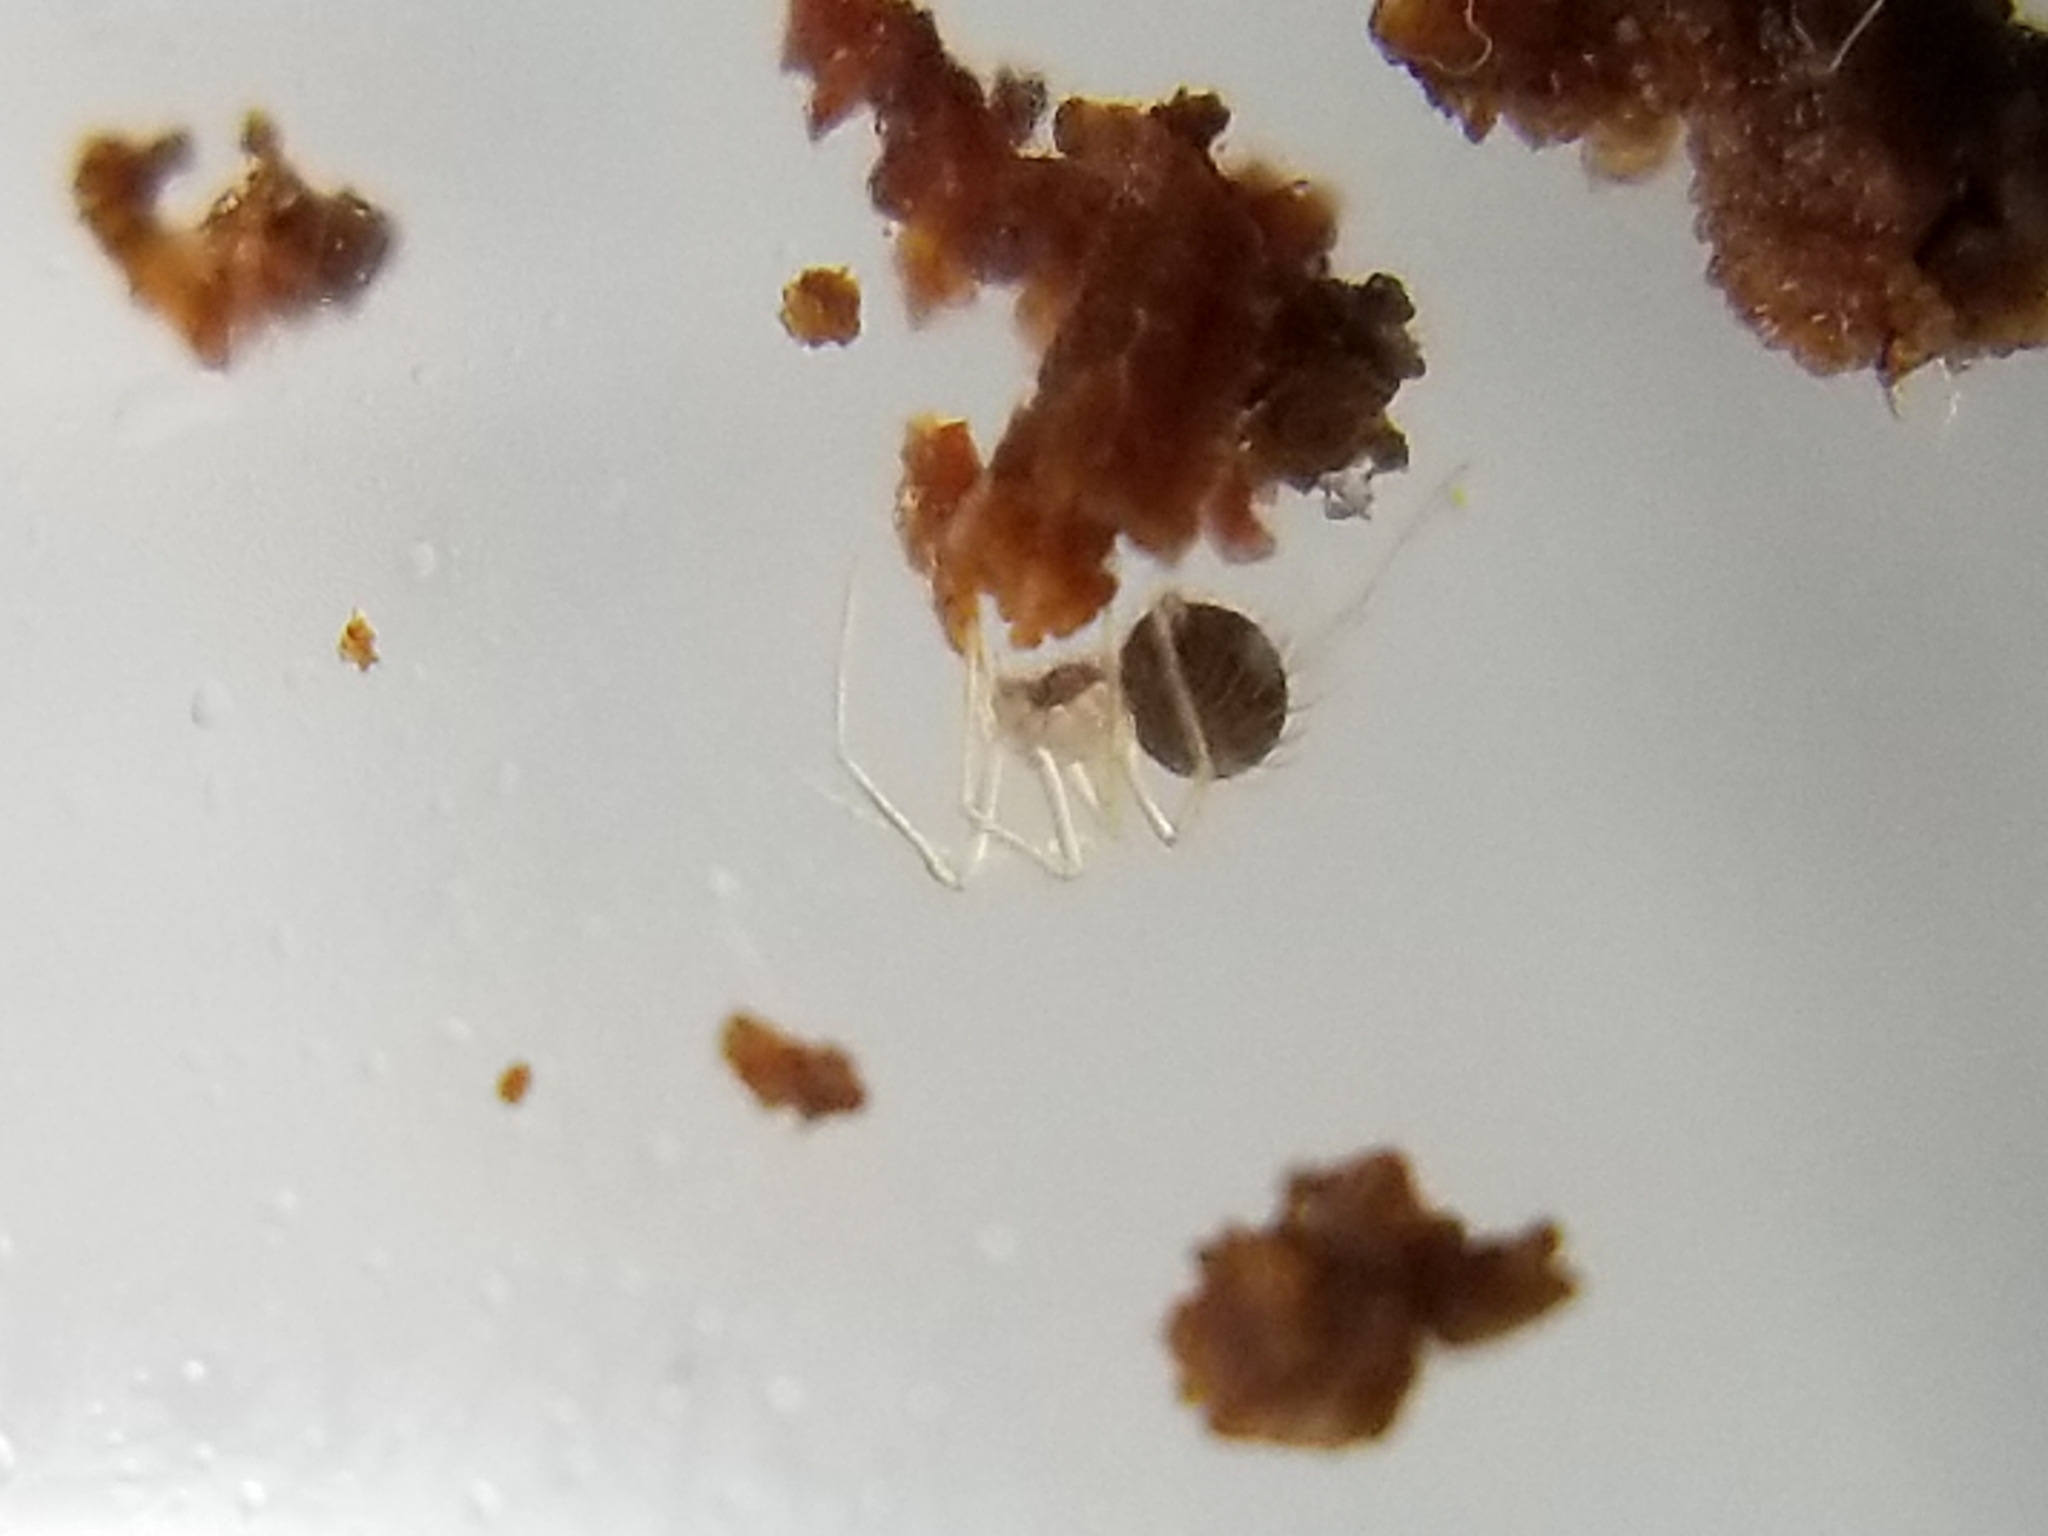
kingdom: Animalia
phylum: Arthropoda
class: Arachnida
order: Araneae
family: Telemidae
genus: Usofila
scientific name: Usofila pacifica
